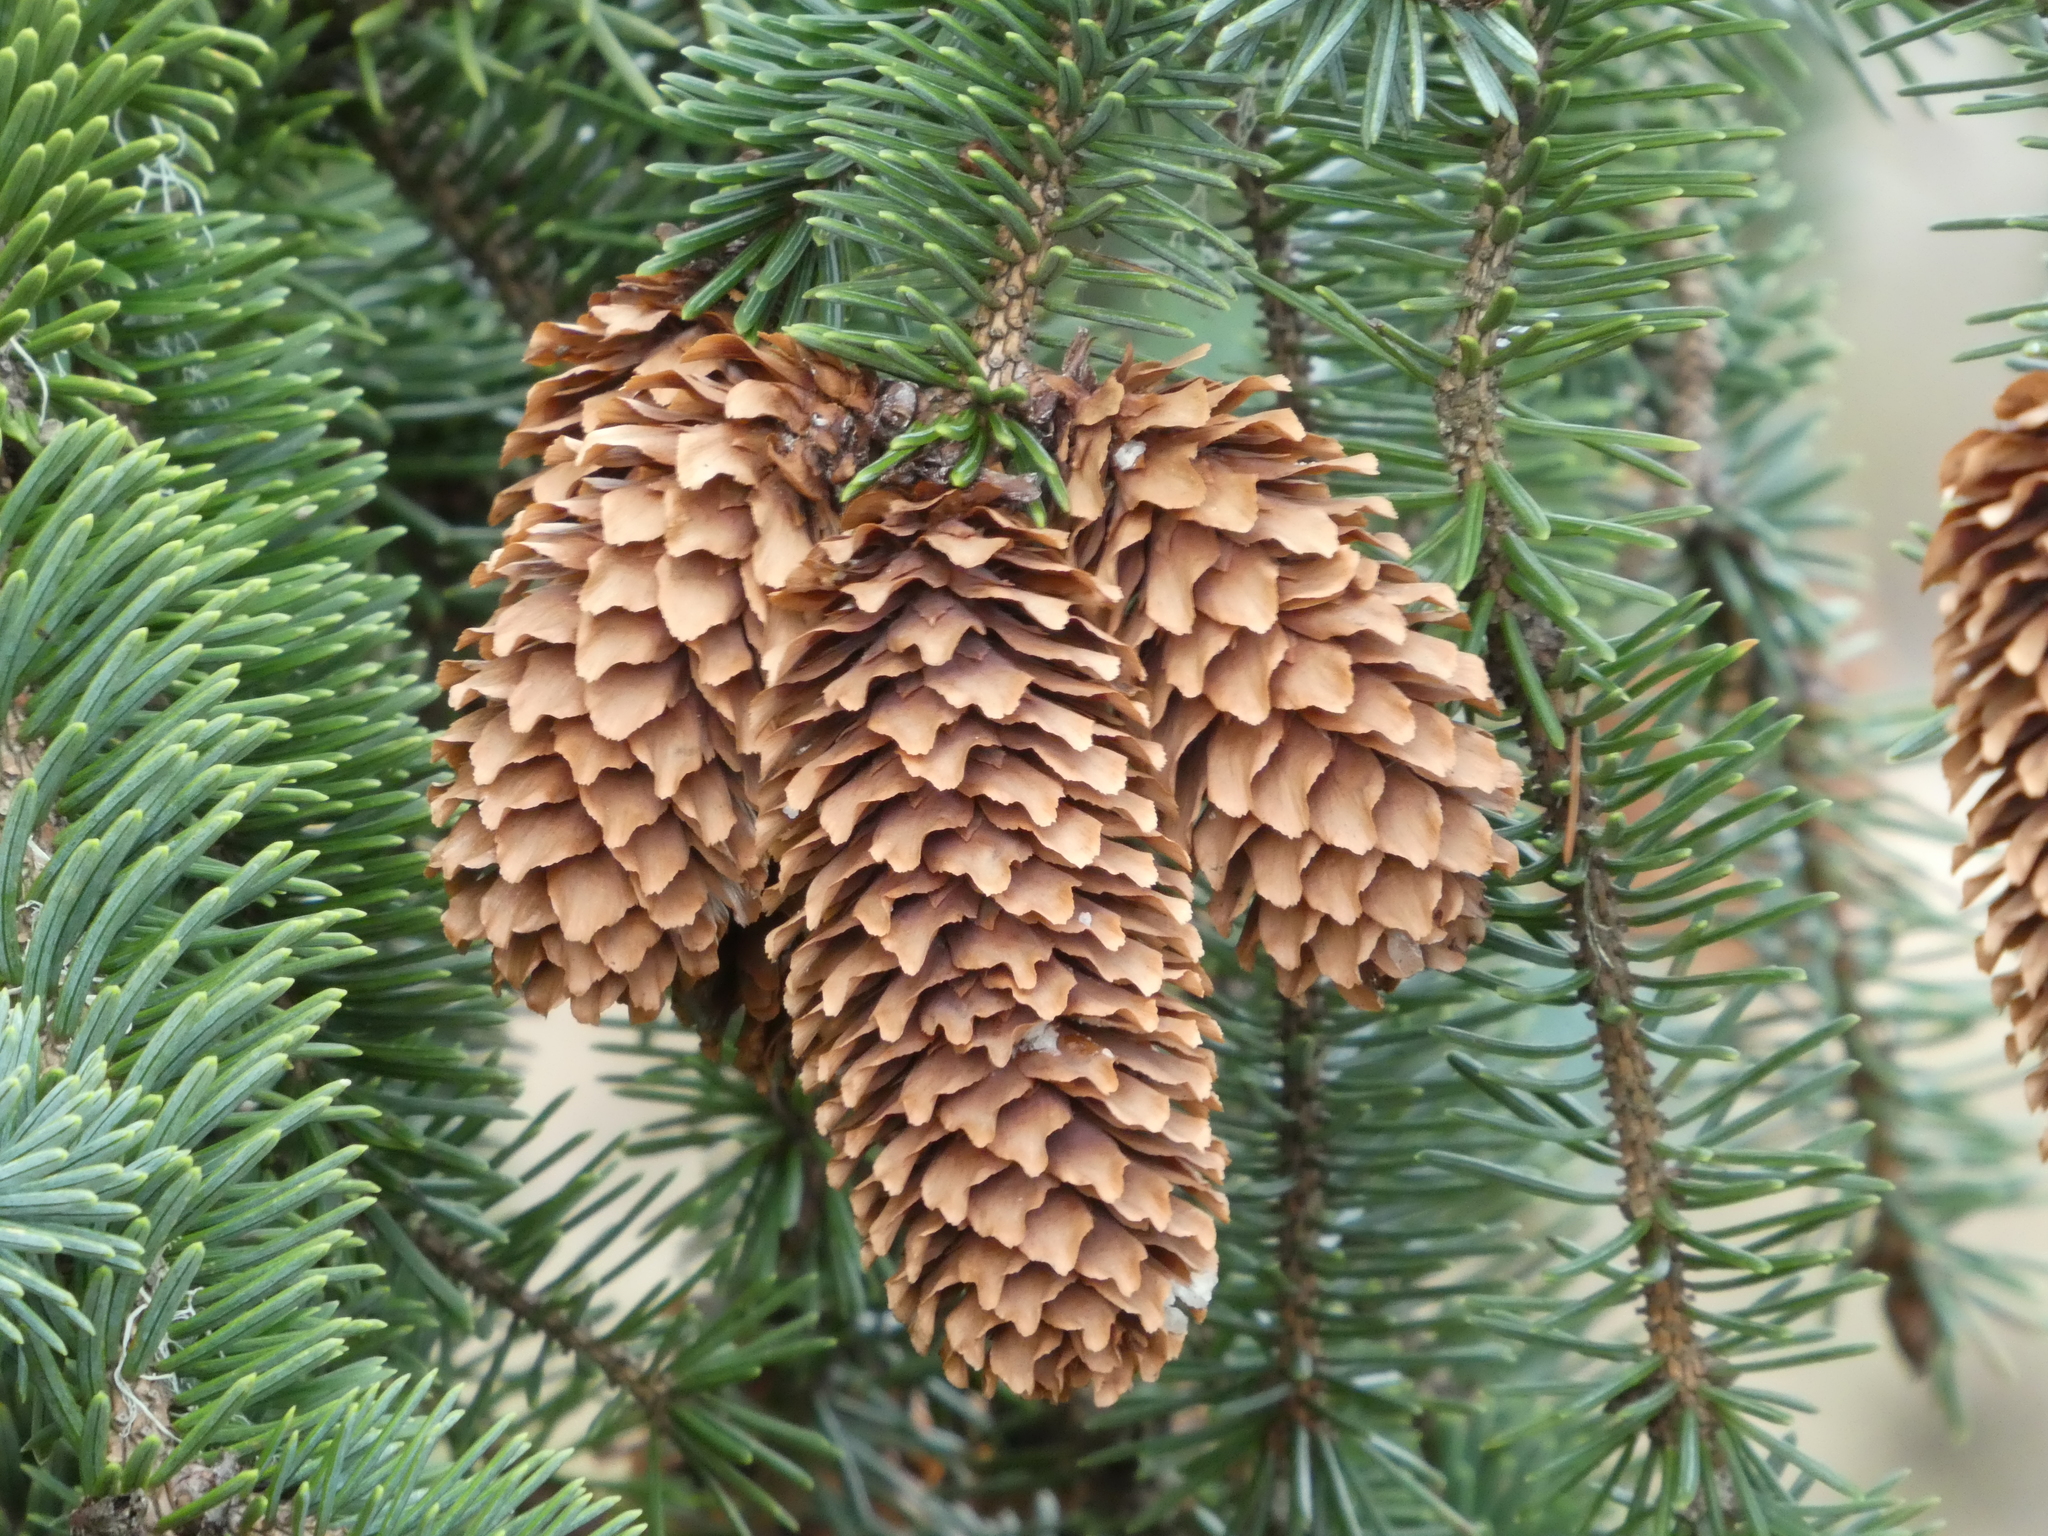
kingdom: Plantae
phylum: Tracheophyta
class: Pinopsida
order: Pinales
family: Pinaceae
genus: Picea
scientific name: Picea sitchensis
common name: Sitka spruce
